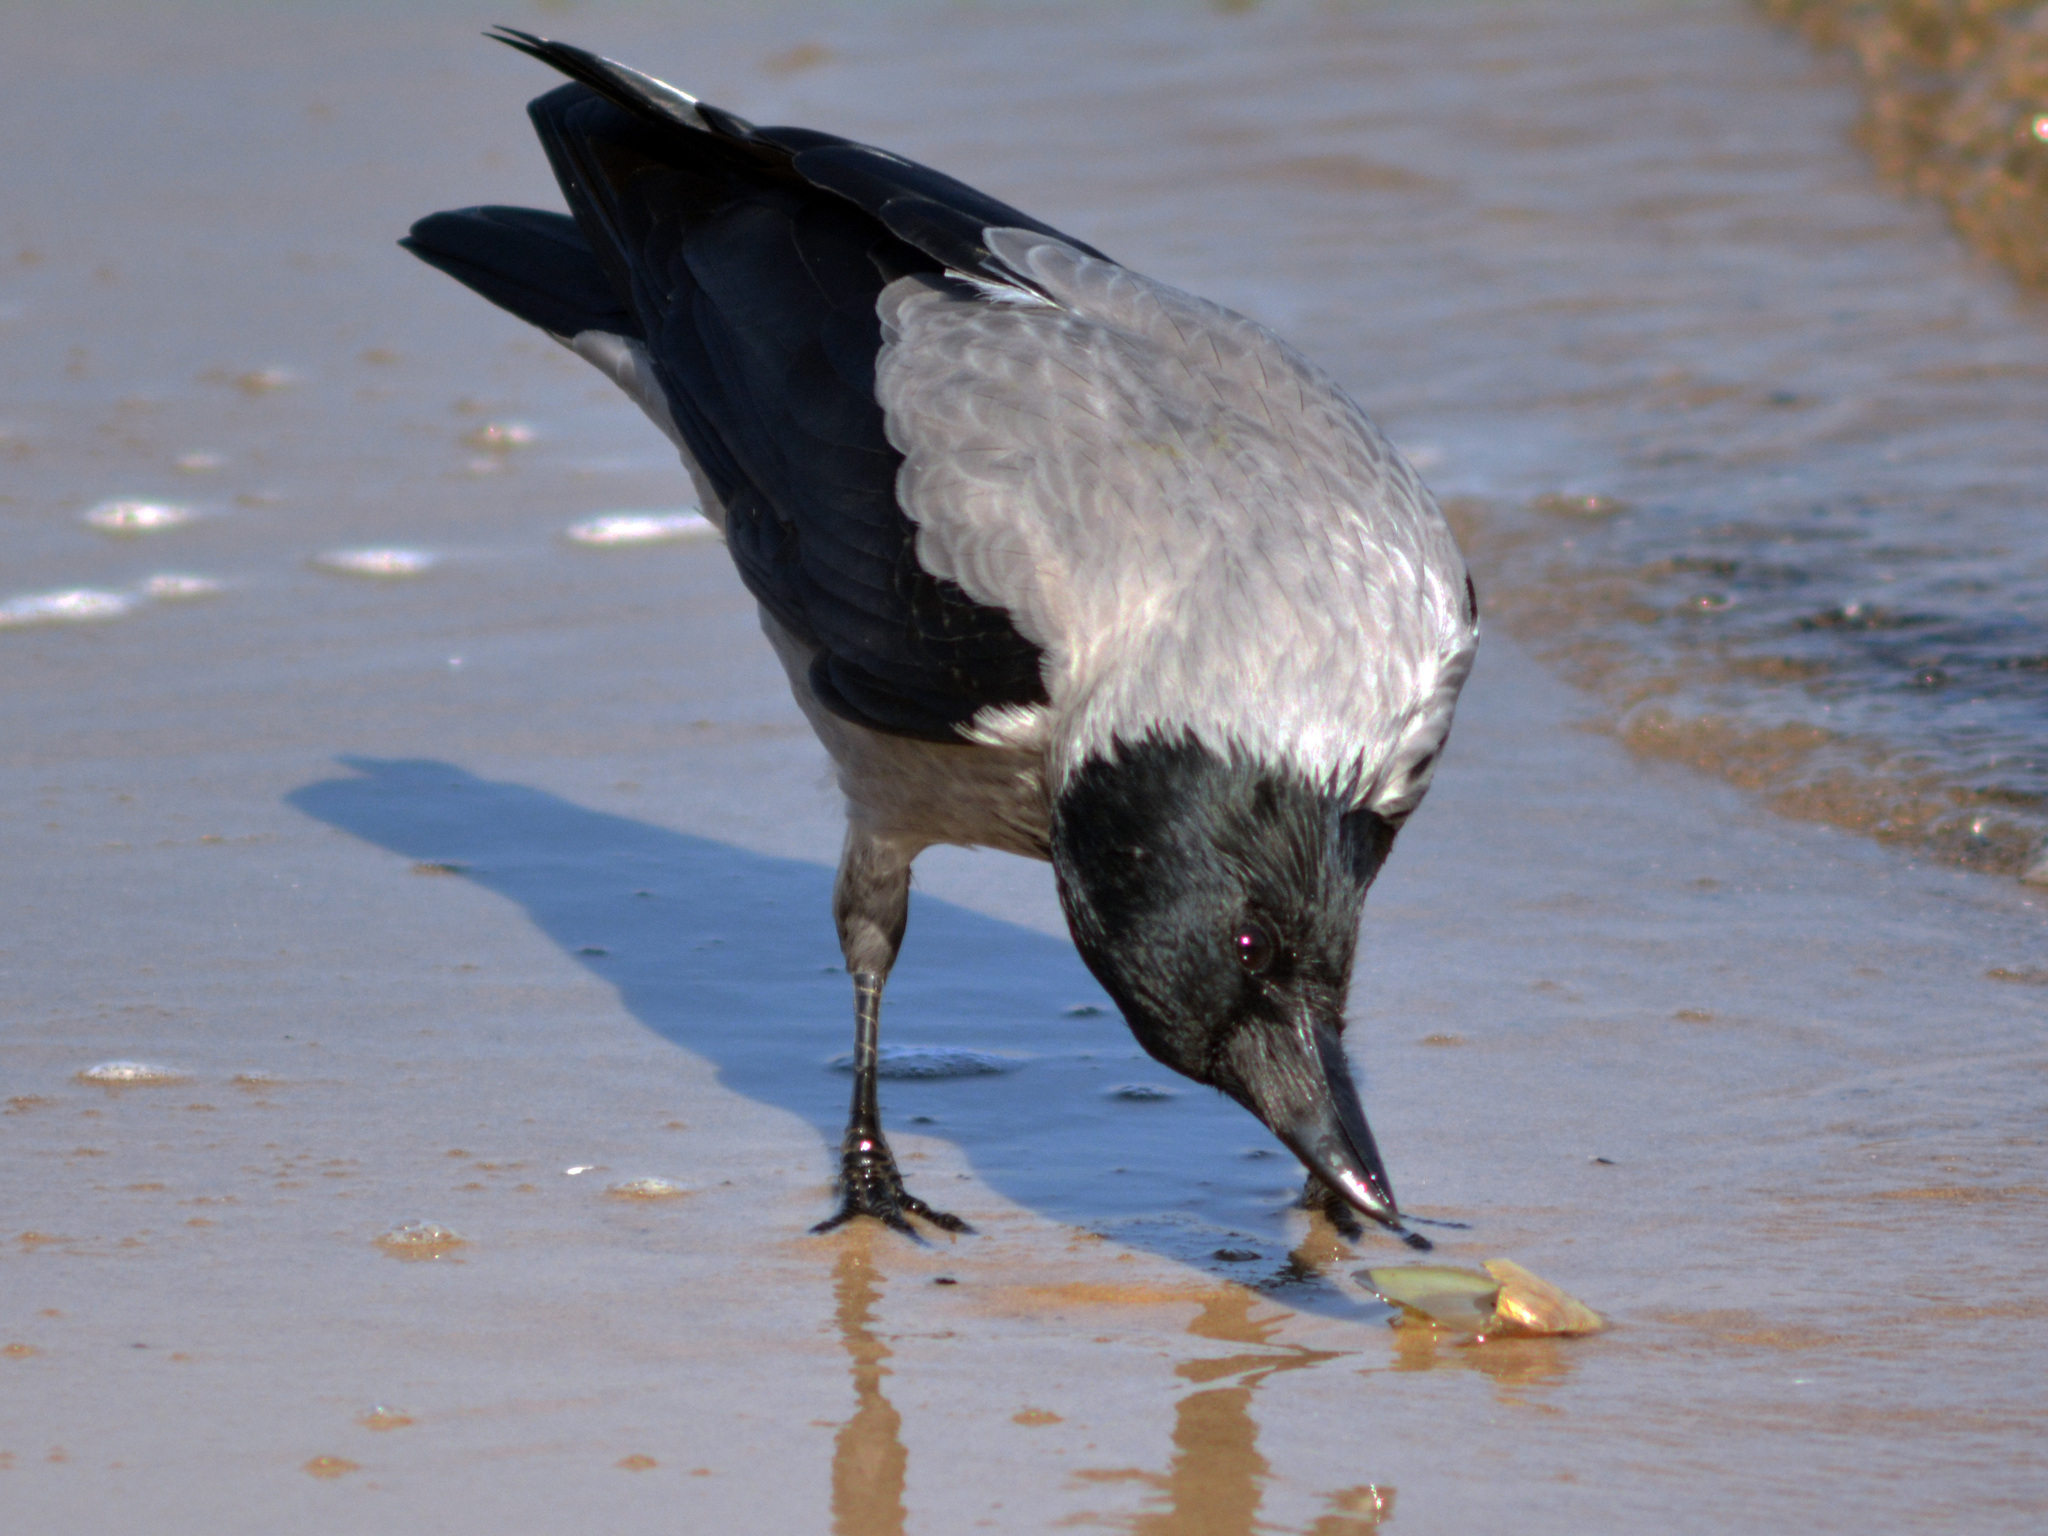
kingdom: Animalia
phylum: Chordata
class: Aves
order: Passeriformes
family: Corvidae
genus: Corvus
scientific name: Corvus cornix
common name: Hooded crow
